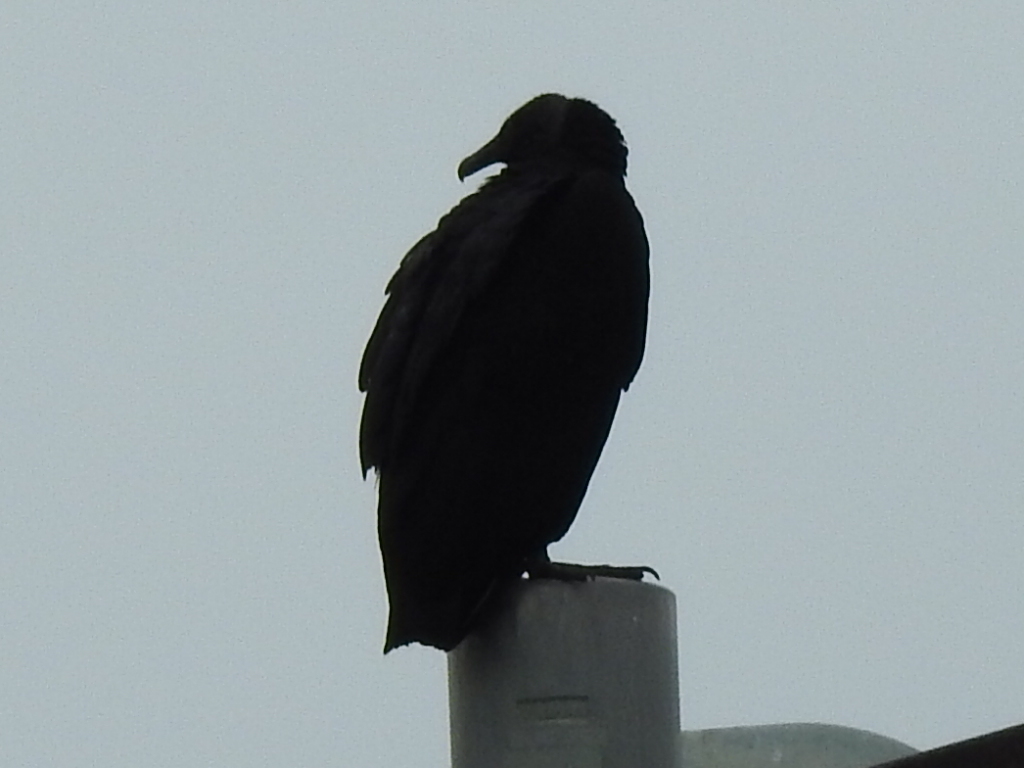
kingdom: Animalia
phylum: Chordata
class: Aves
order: Accipitriformes
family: Cathartidae
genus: Coragyps
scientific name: Coragyps atratus
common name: Black vulture
